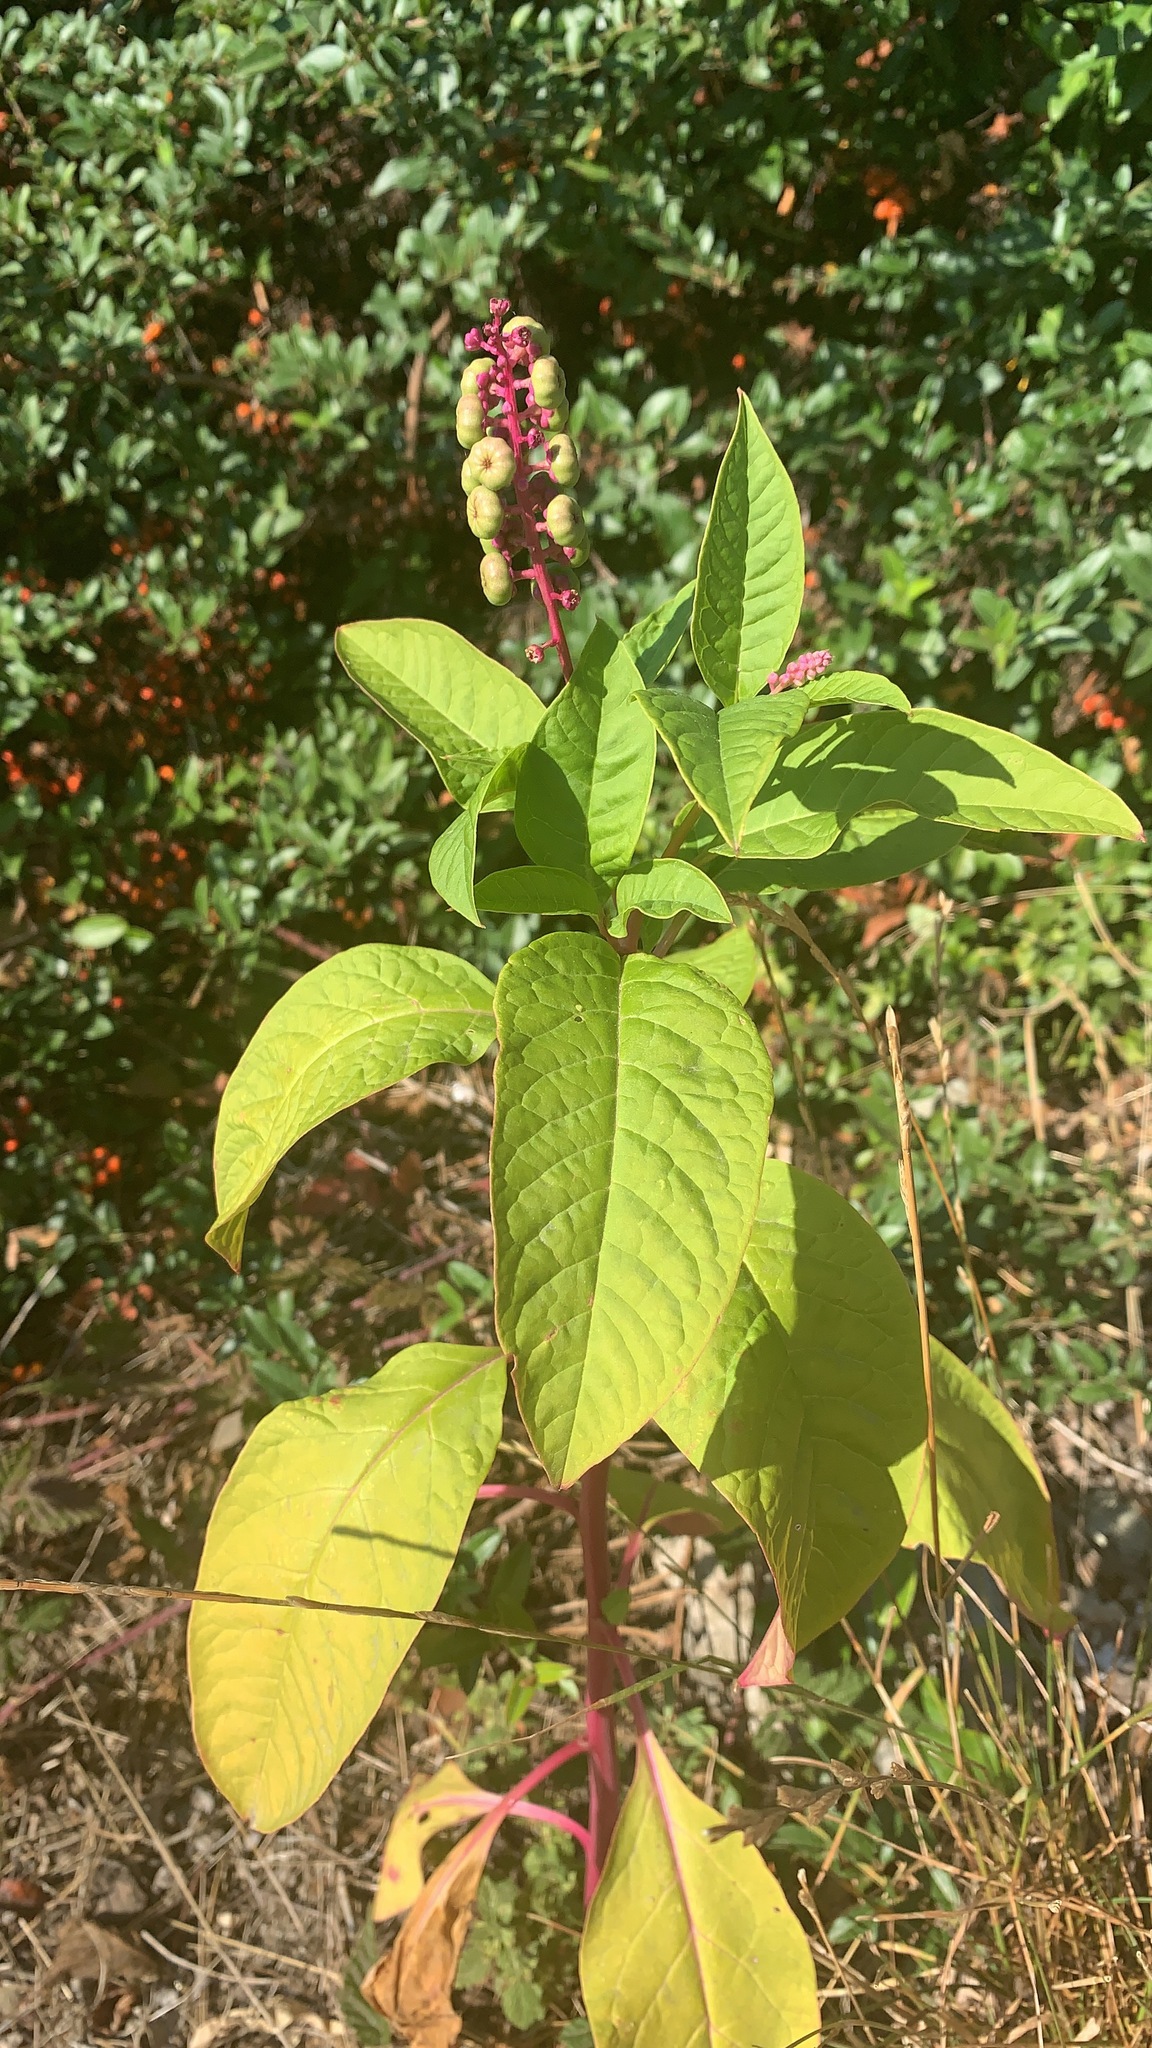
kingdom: Plantae
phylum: Tracheophyta
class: Magnoliopsida
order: Caryophyllales
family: Phytolaccaceae
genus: Phytolacca
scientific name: Phytolacca americana
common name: American pokeweed
